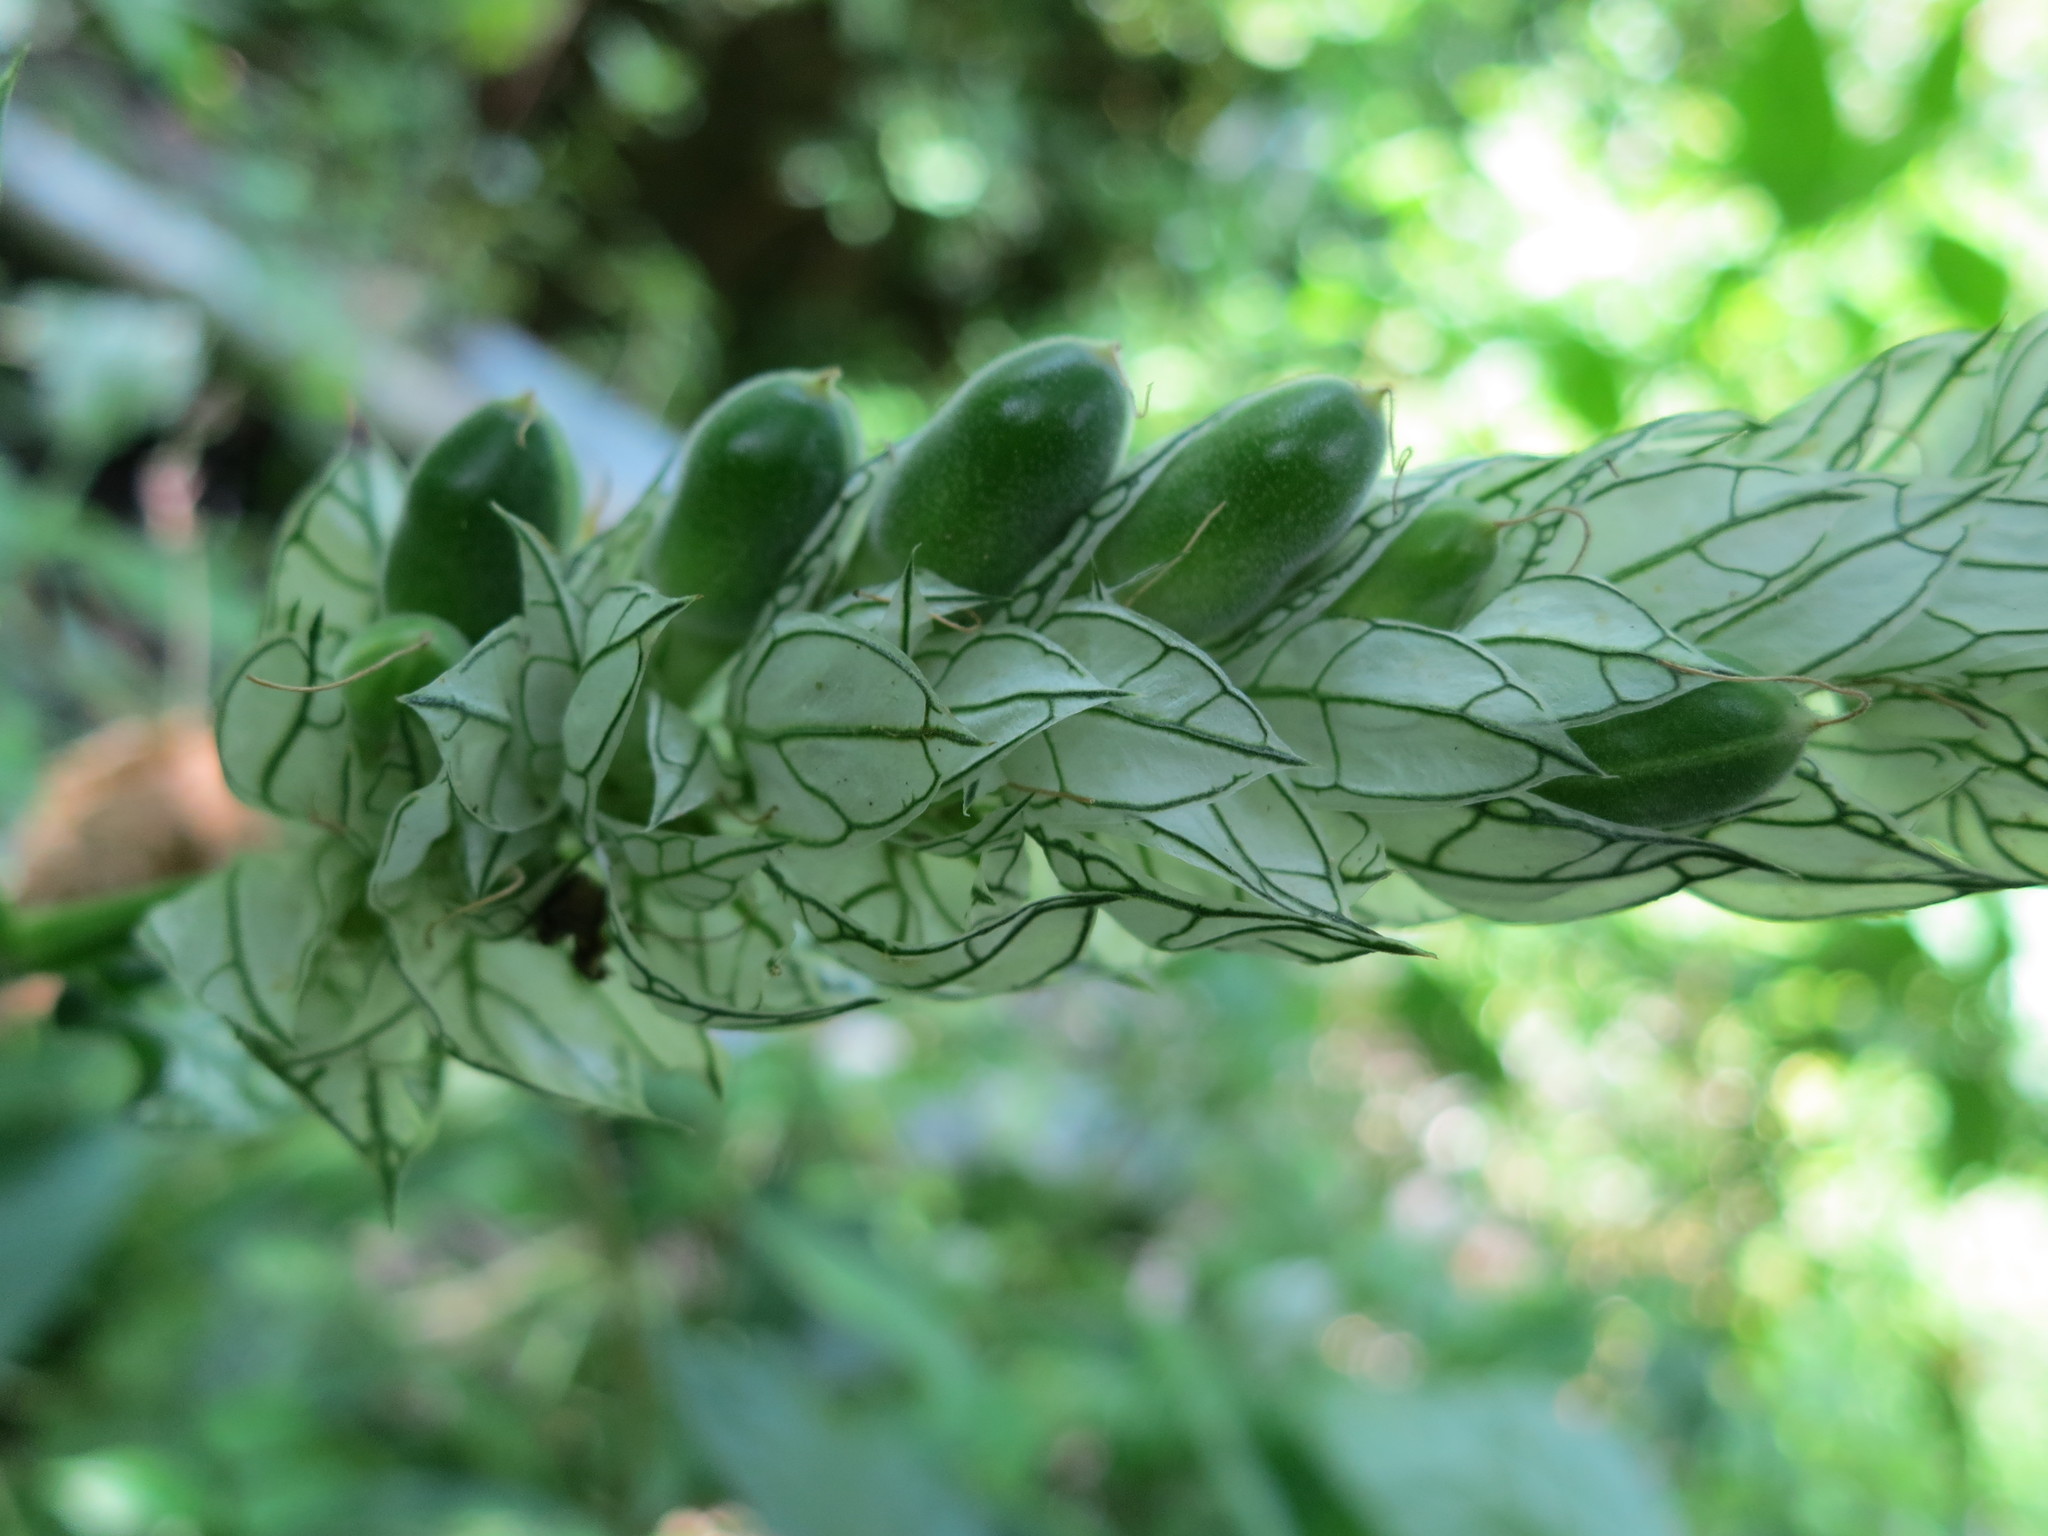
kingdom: Plantae
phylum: Tracheophyta
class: Magnoliopsida
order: Lamiales
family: Acanthaceae
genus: Justicia
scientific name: Justicia betonica
